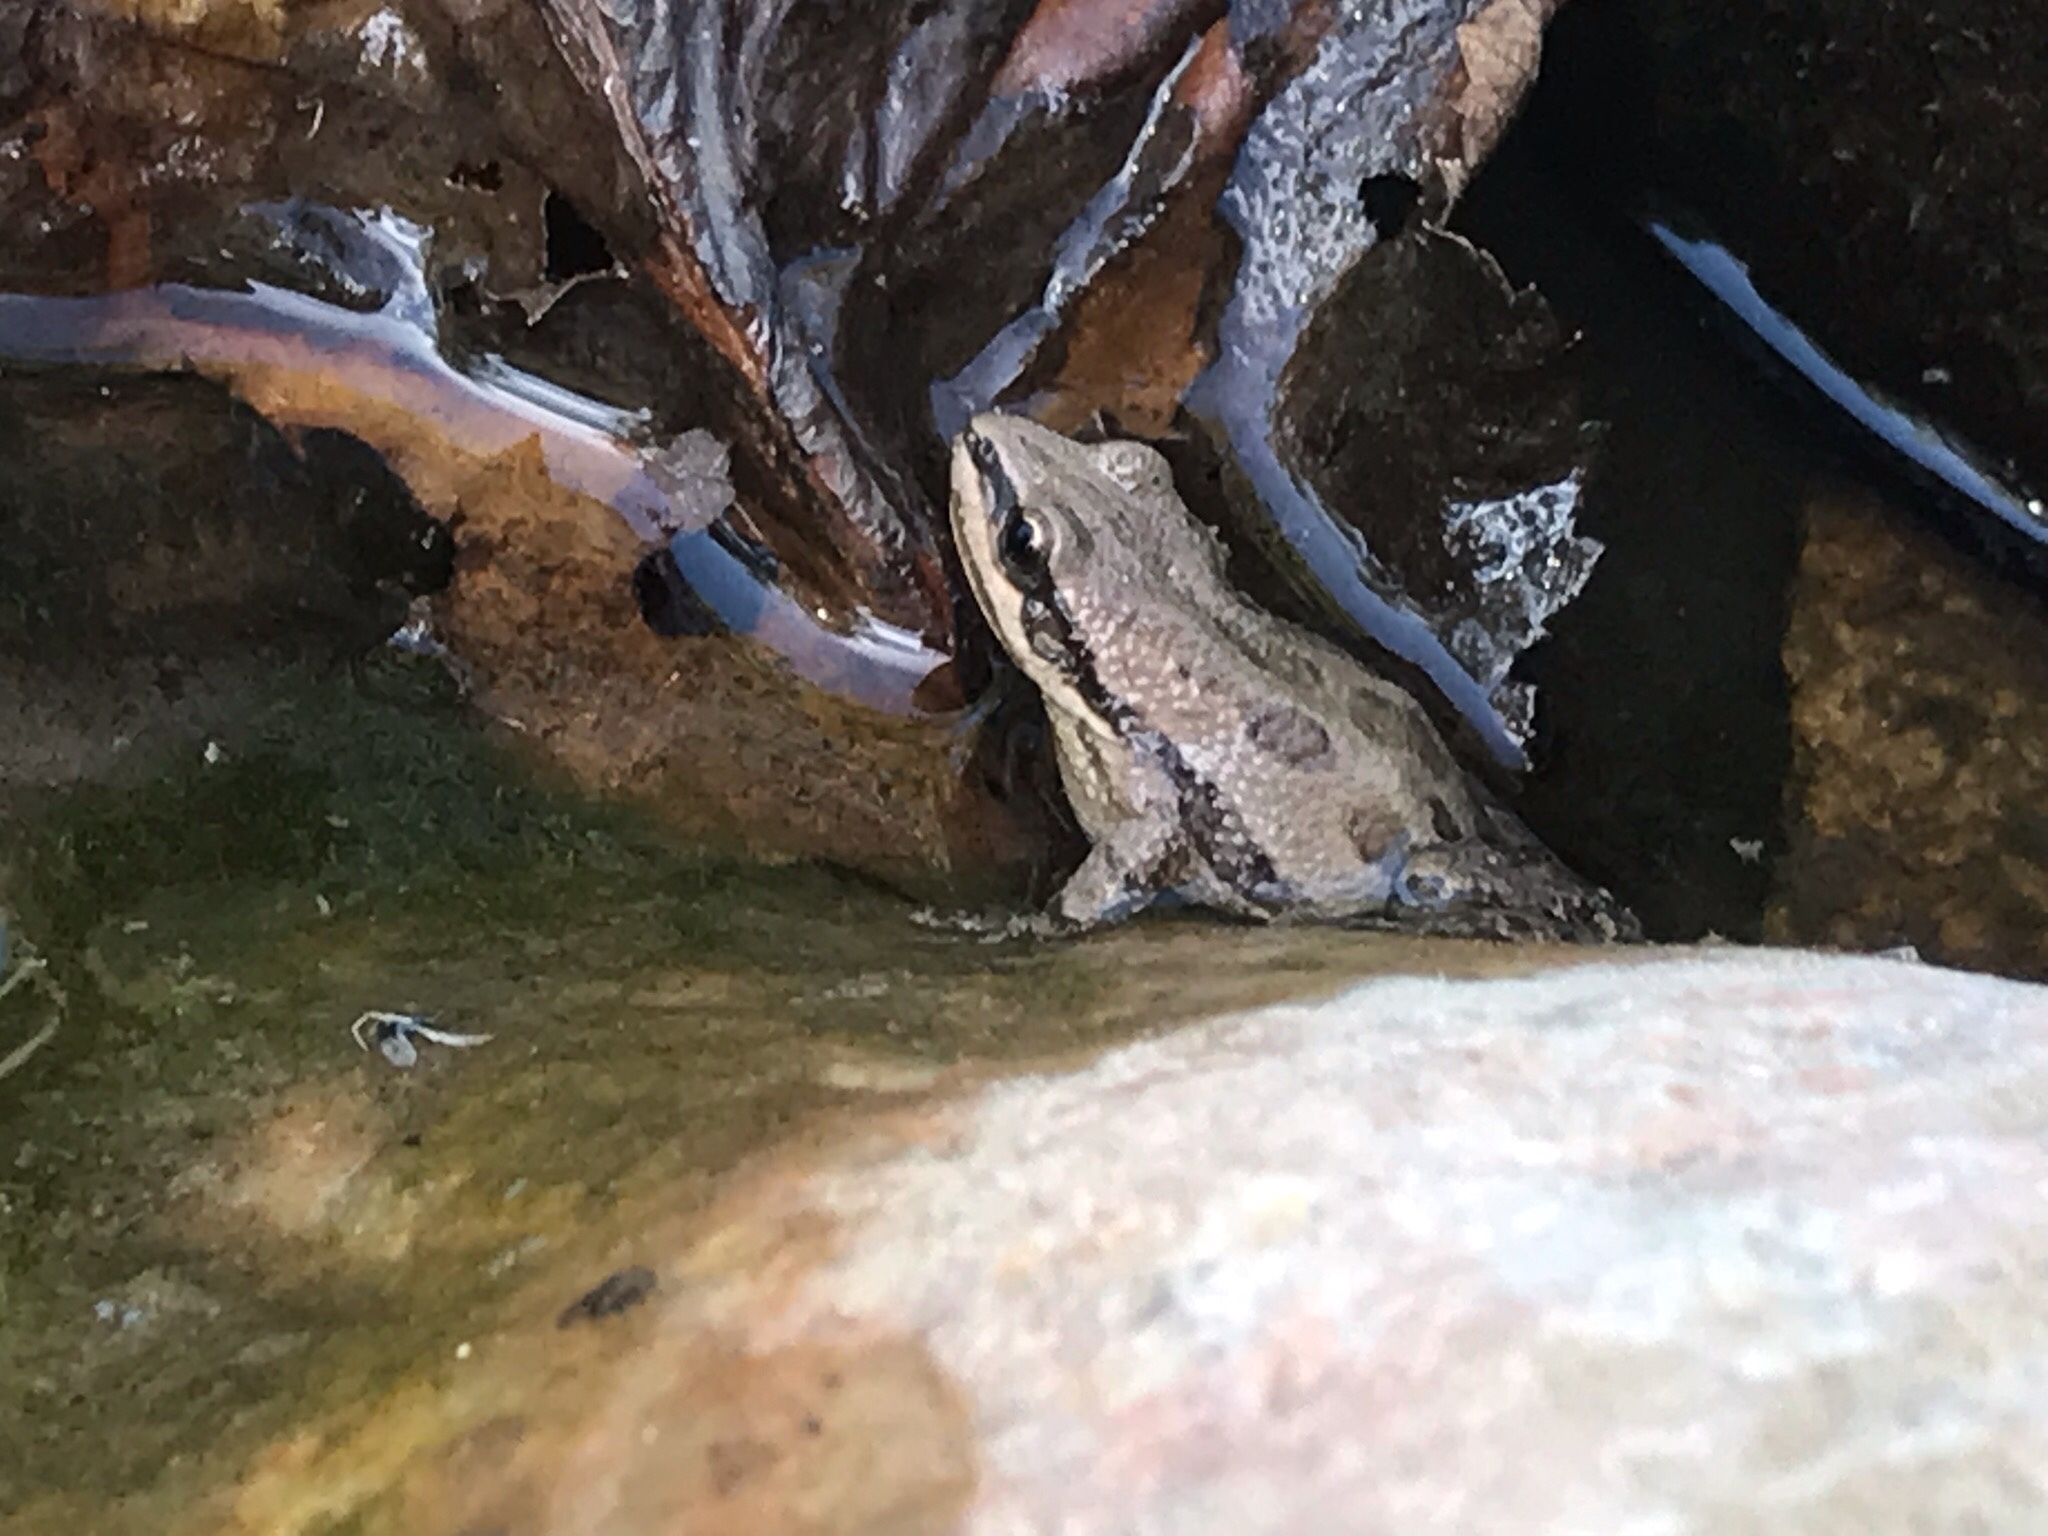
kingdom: Animalia
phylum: Chordata
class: Amphibia
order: Anura
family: Hylidae
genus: Pseudacris
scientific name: Pseudacris maculata
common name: Boreal chorus frog
